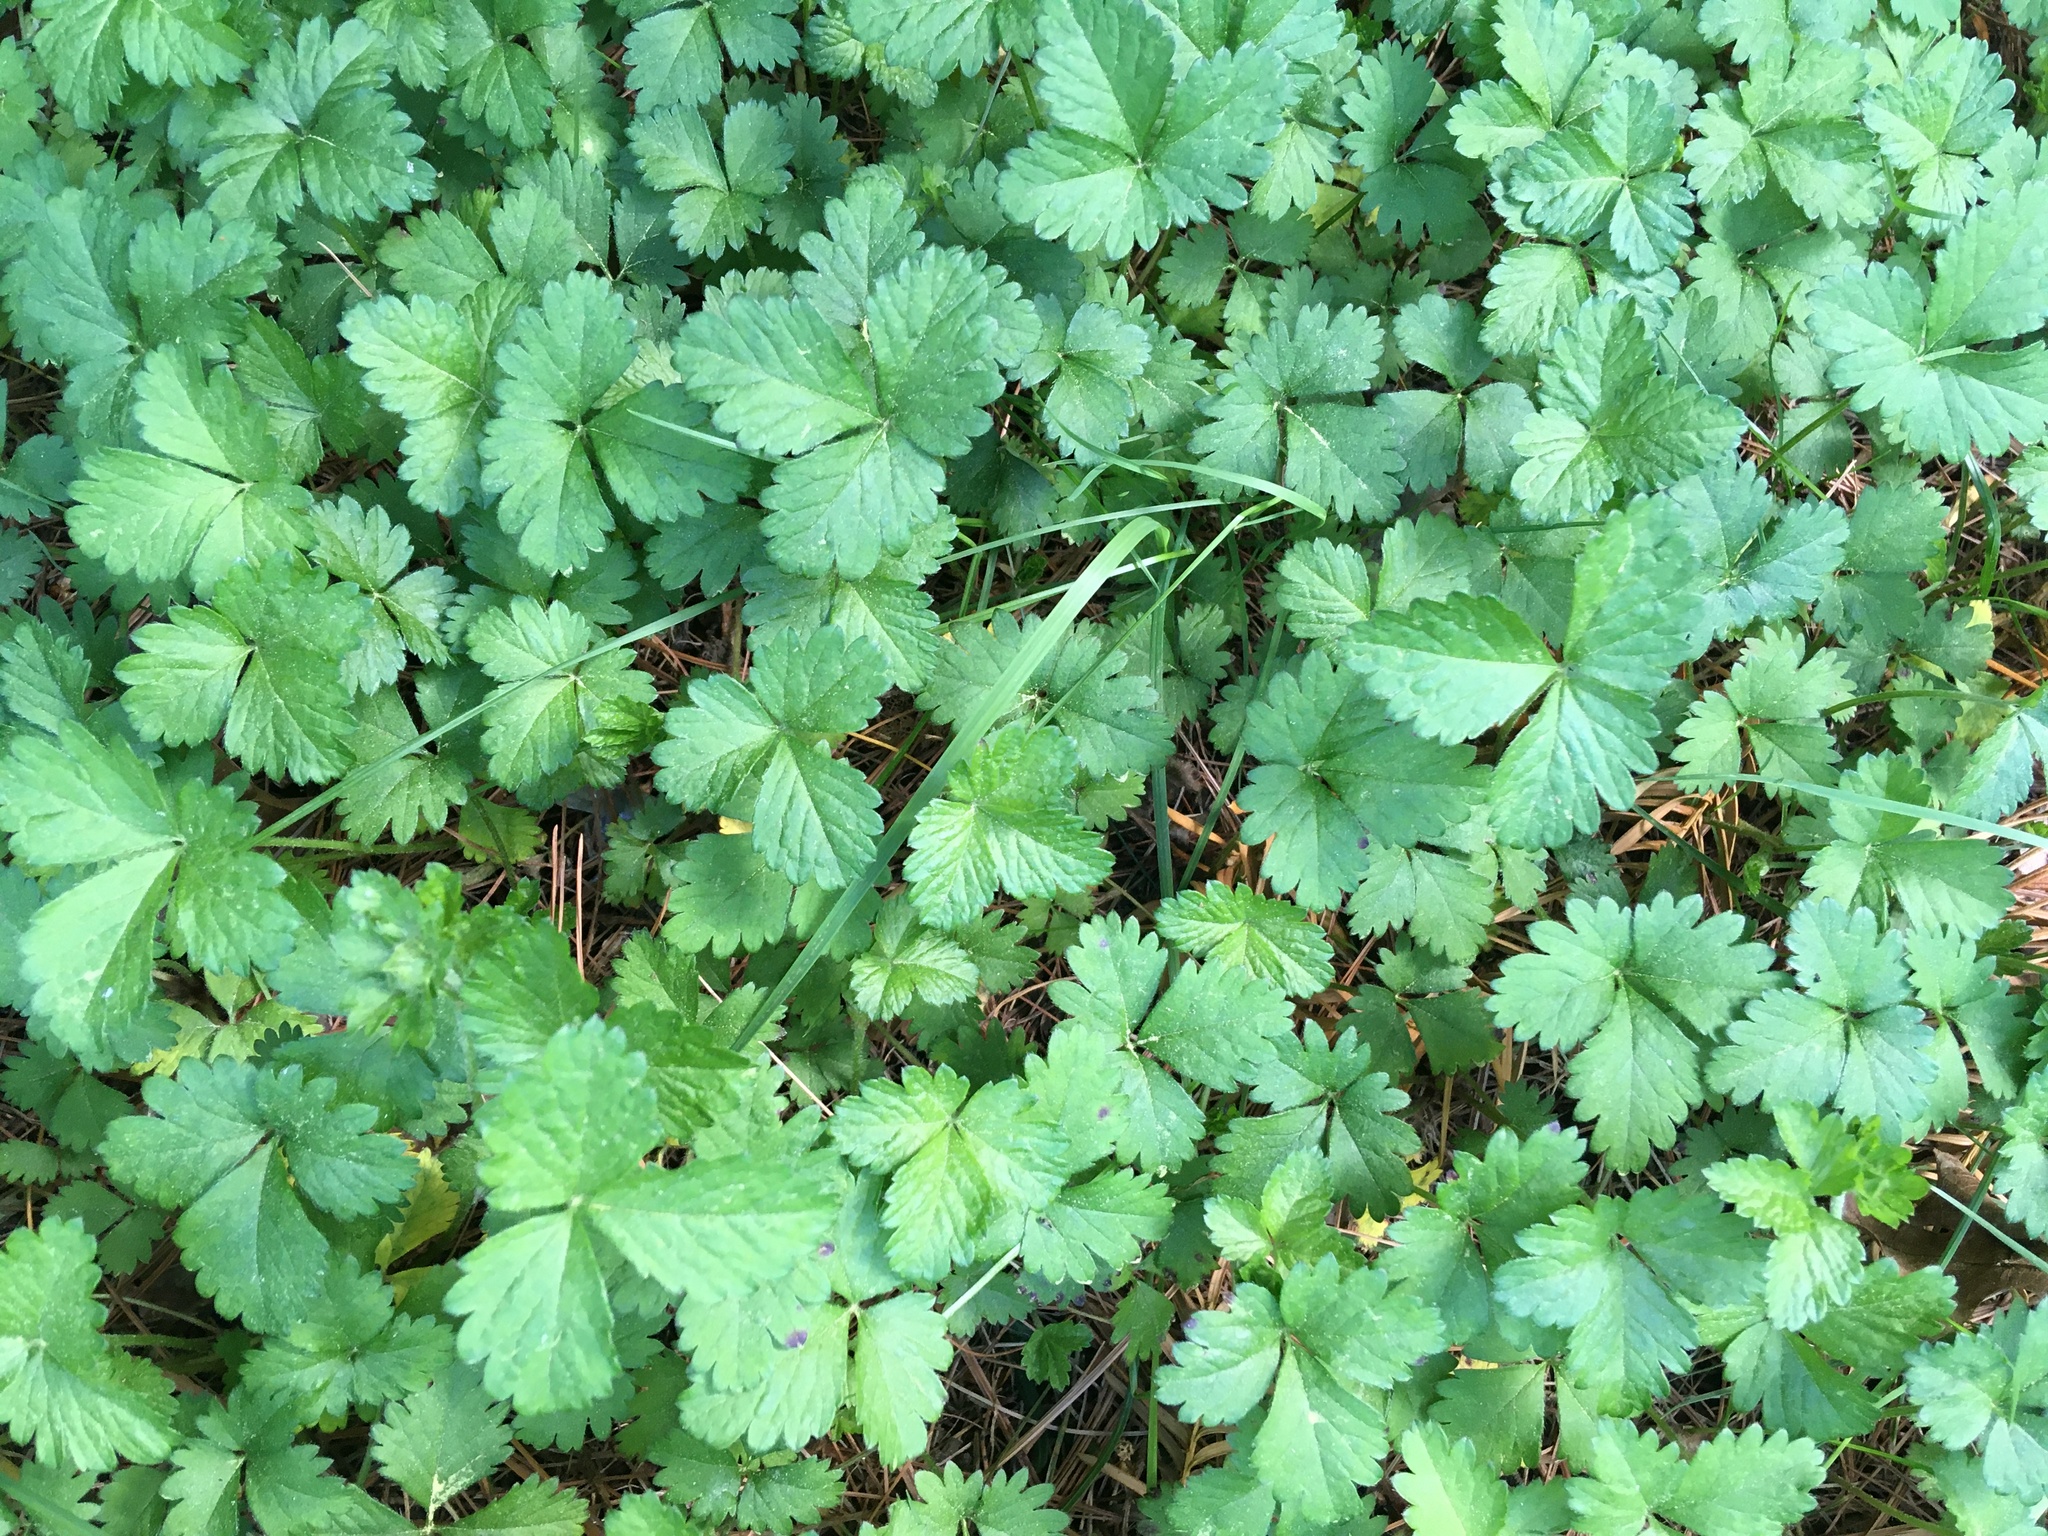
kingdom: Plantae
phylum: Tracheophyta
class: Magnoliopsida
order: Rosales
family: Rosaceae
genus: Potentilla
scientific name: Potentilla indica
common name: Yellow-flowered strawberry
